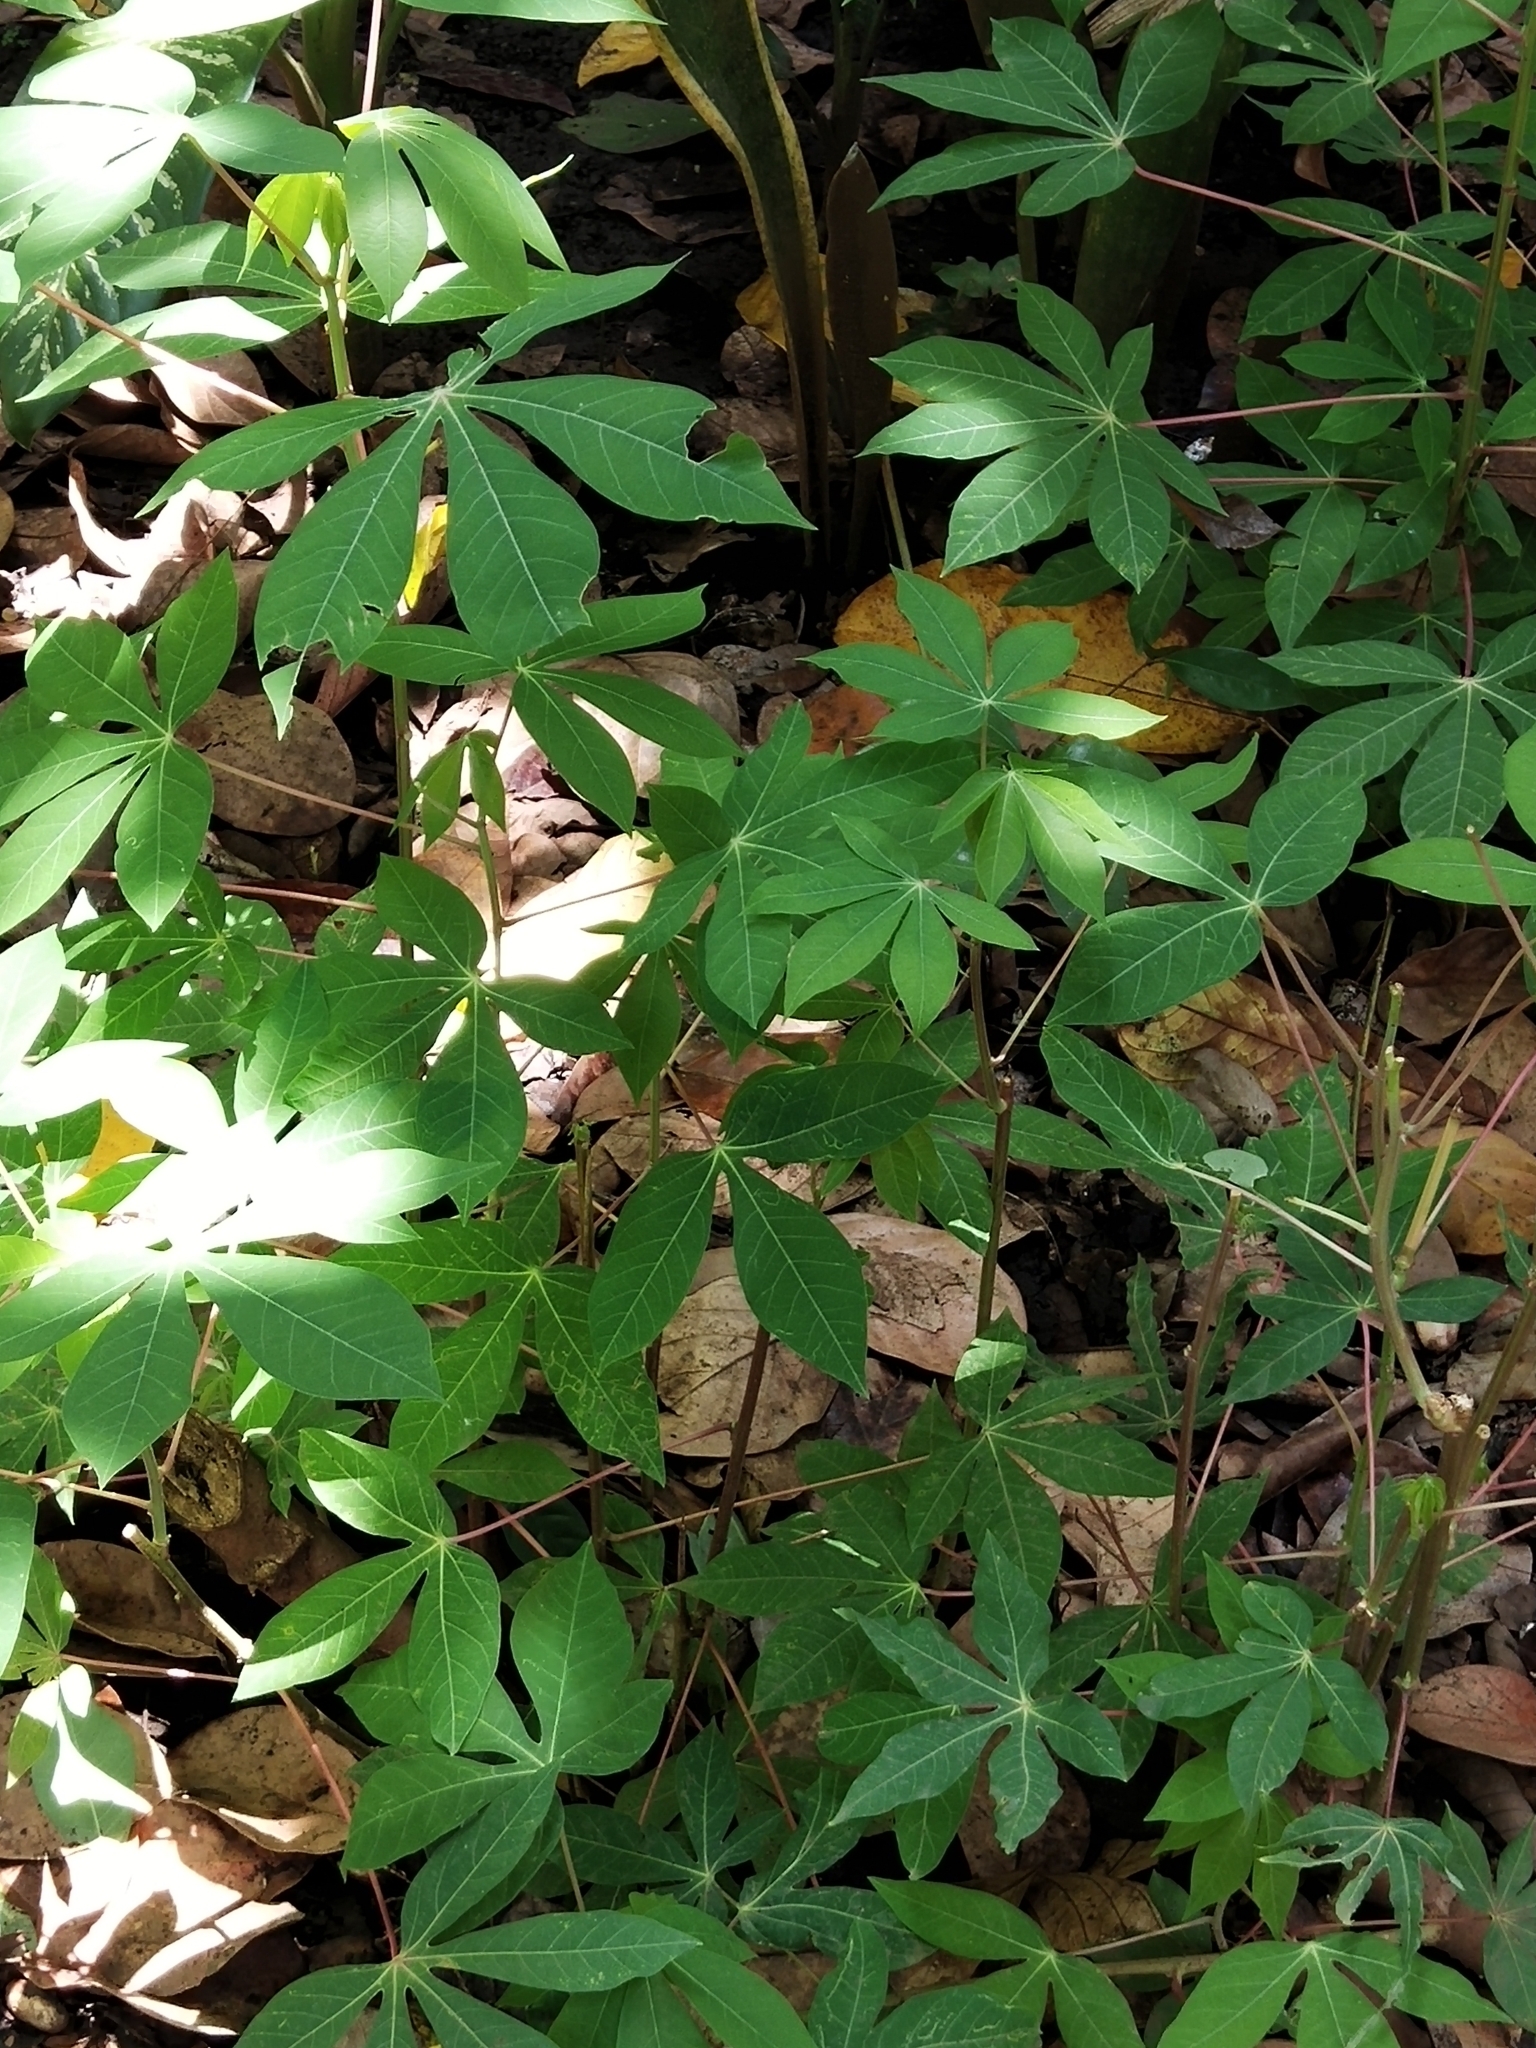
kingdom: Plantae
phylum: Tracheophyta
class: Magnoliopsida
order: Malpighiales
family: Euphorbiaceae
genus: Manihot
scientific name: Manihot esculenta
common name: Cassava
